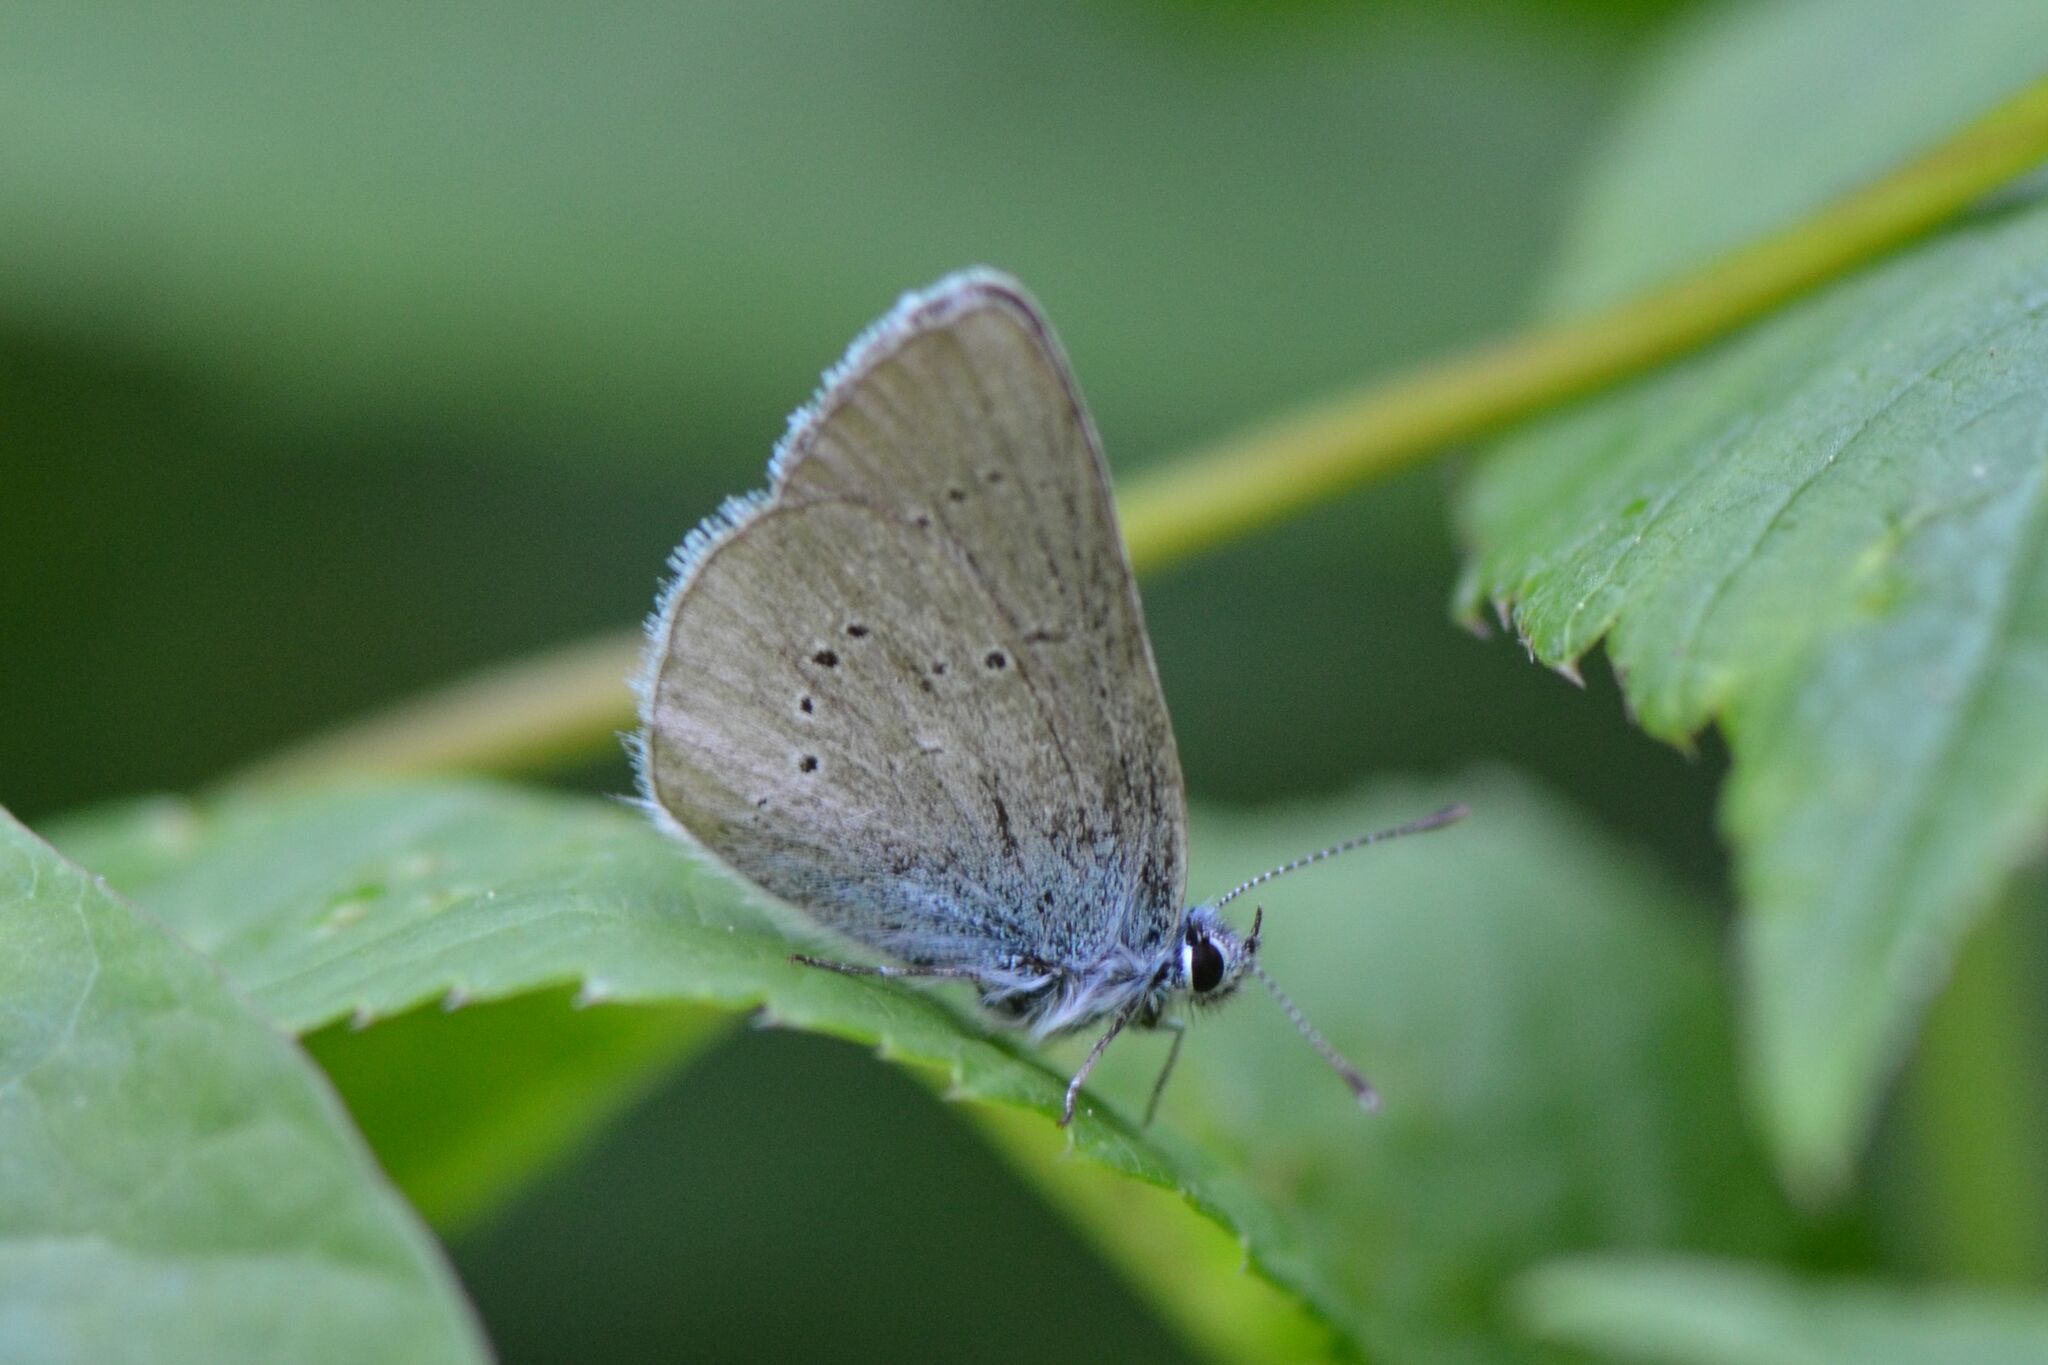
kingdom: Animalia
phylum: Arthropoda
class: Insecta
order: Lepidoptera
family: Lycaenidae
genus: Cyaniris
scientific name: Cyaniris semiargus
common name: Mazarine blue
